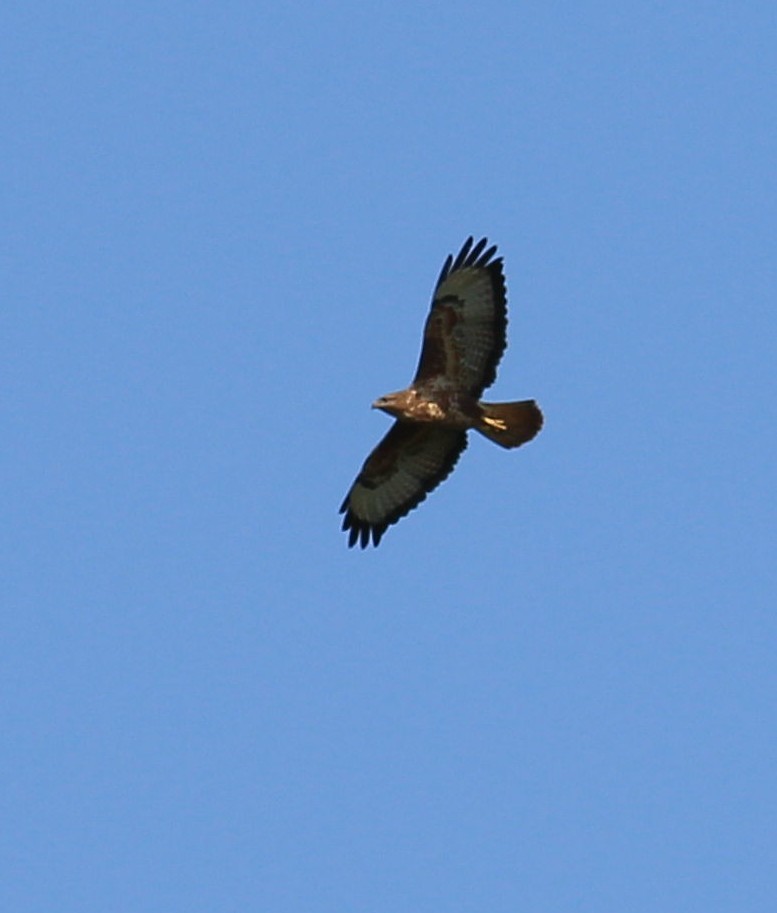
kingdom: Animalia
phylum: Chordata
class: Aves
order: Accipitriformes
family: Accipitridae
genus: Buteo
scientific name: Buteo buteo
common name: Common buzzard
